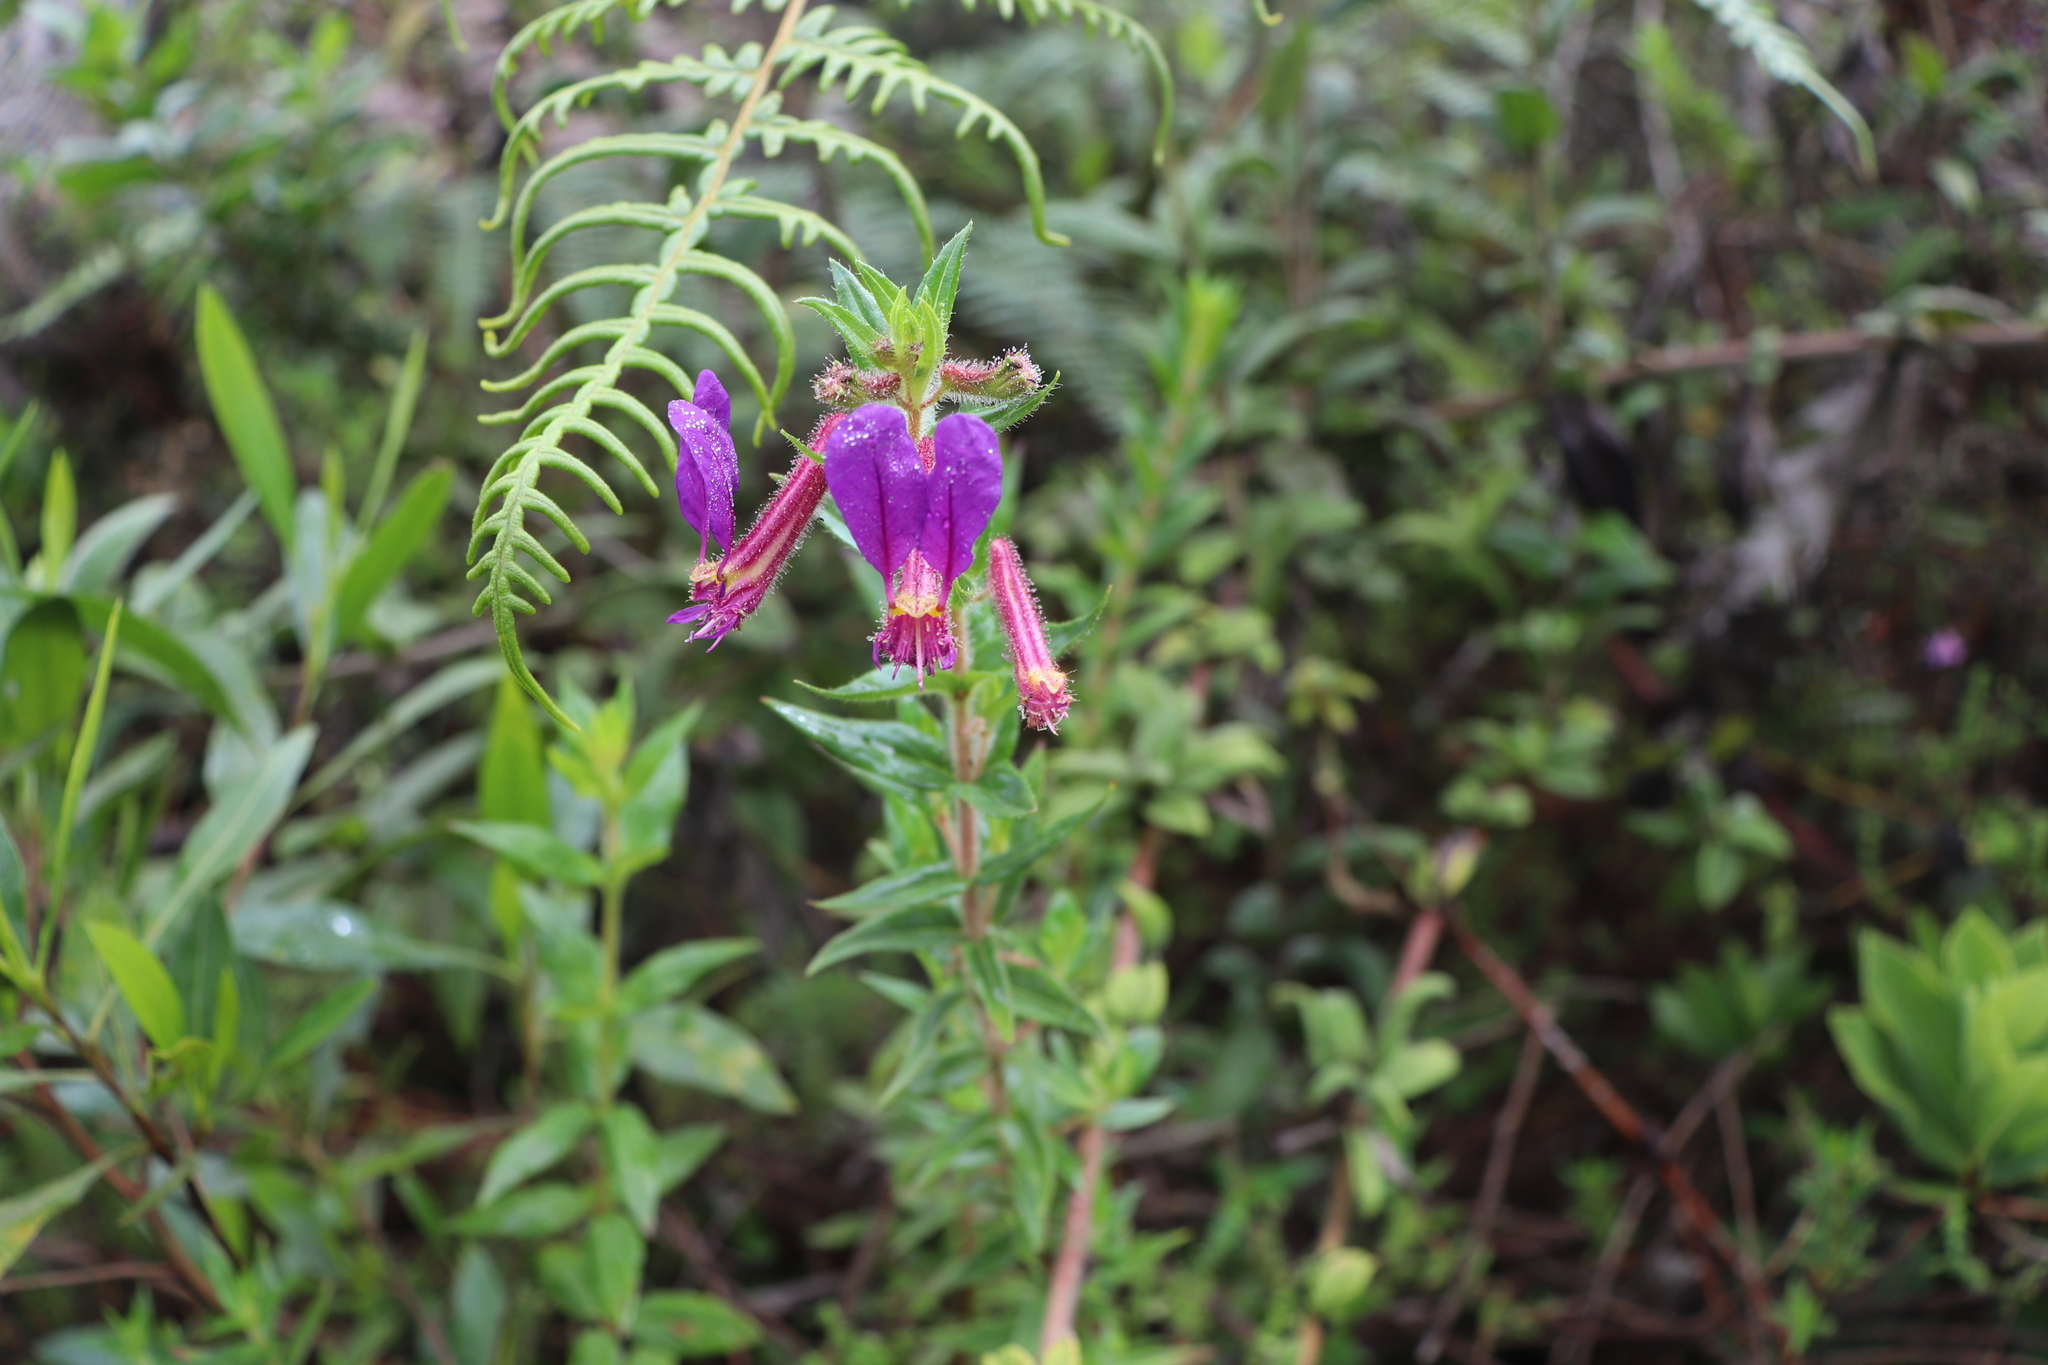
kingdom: Plantae
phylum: Tracheophyta
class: Magnoliopsida
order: Myrtales
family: Lythraceae
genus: Cuphea
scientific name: Cuphea dipetala
